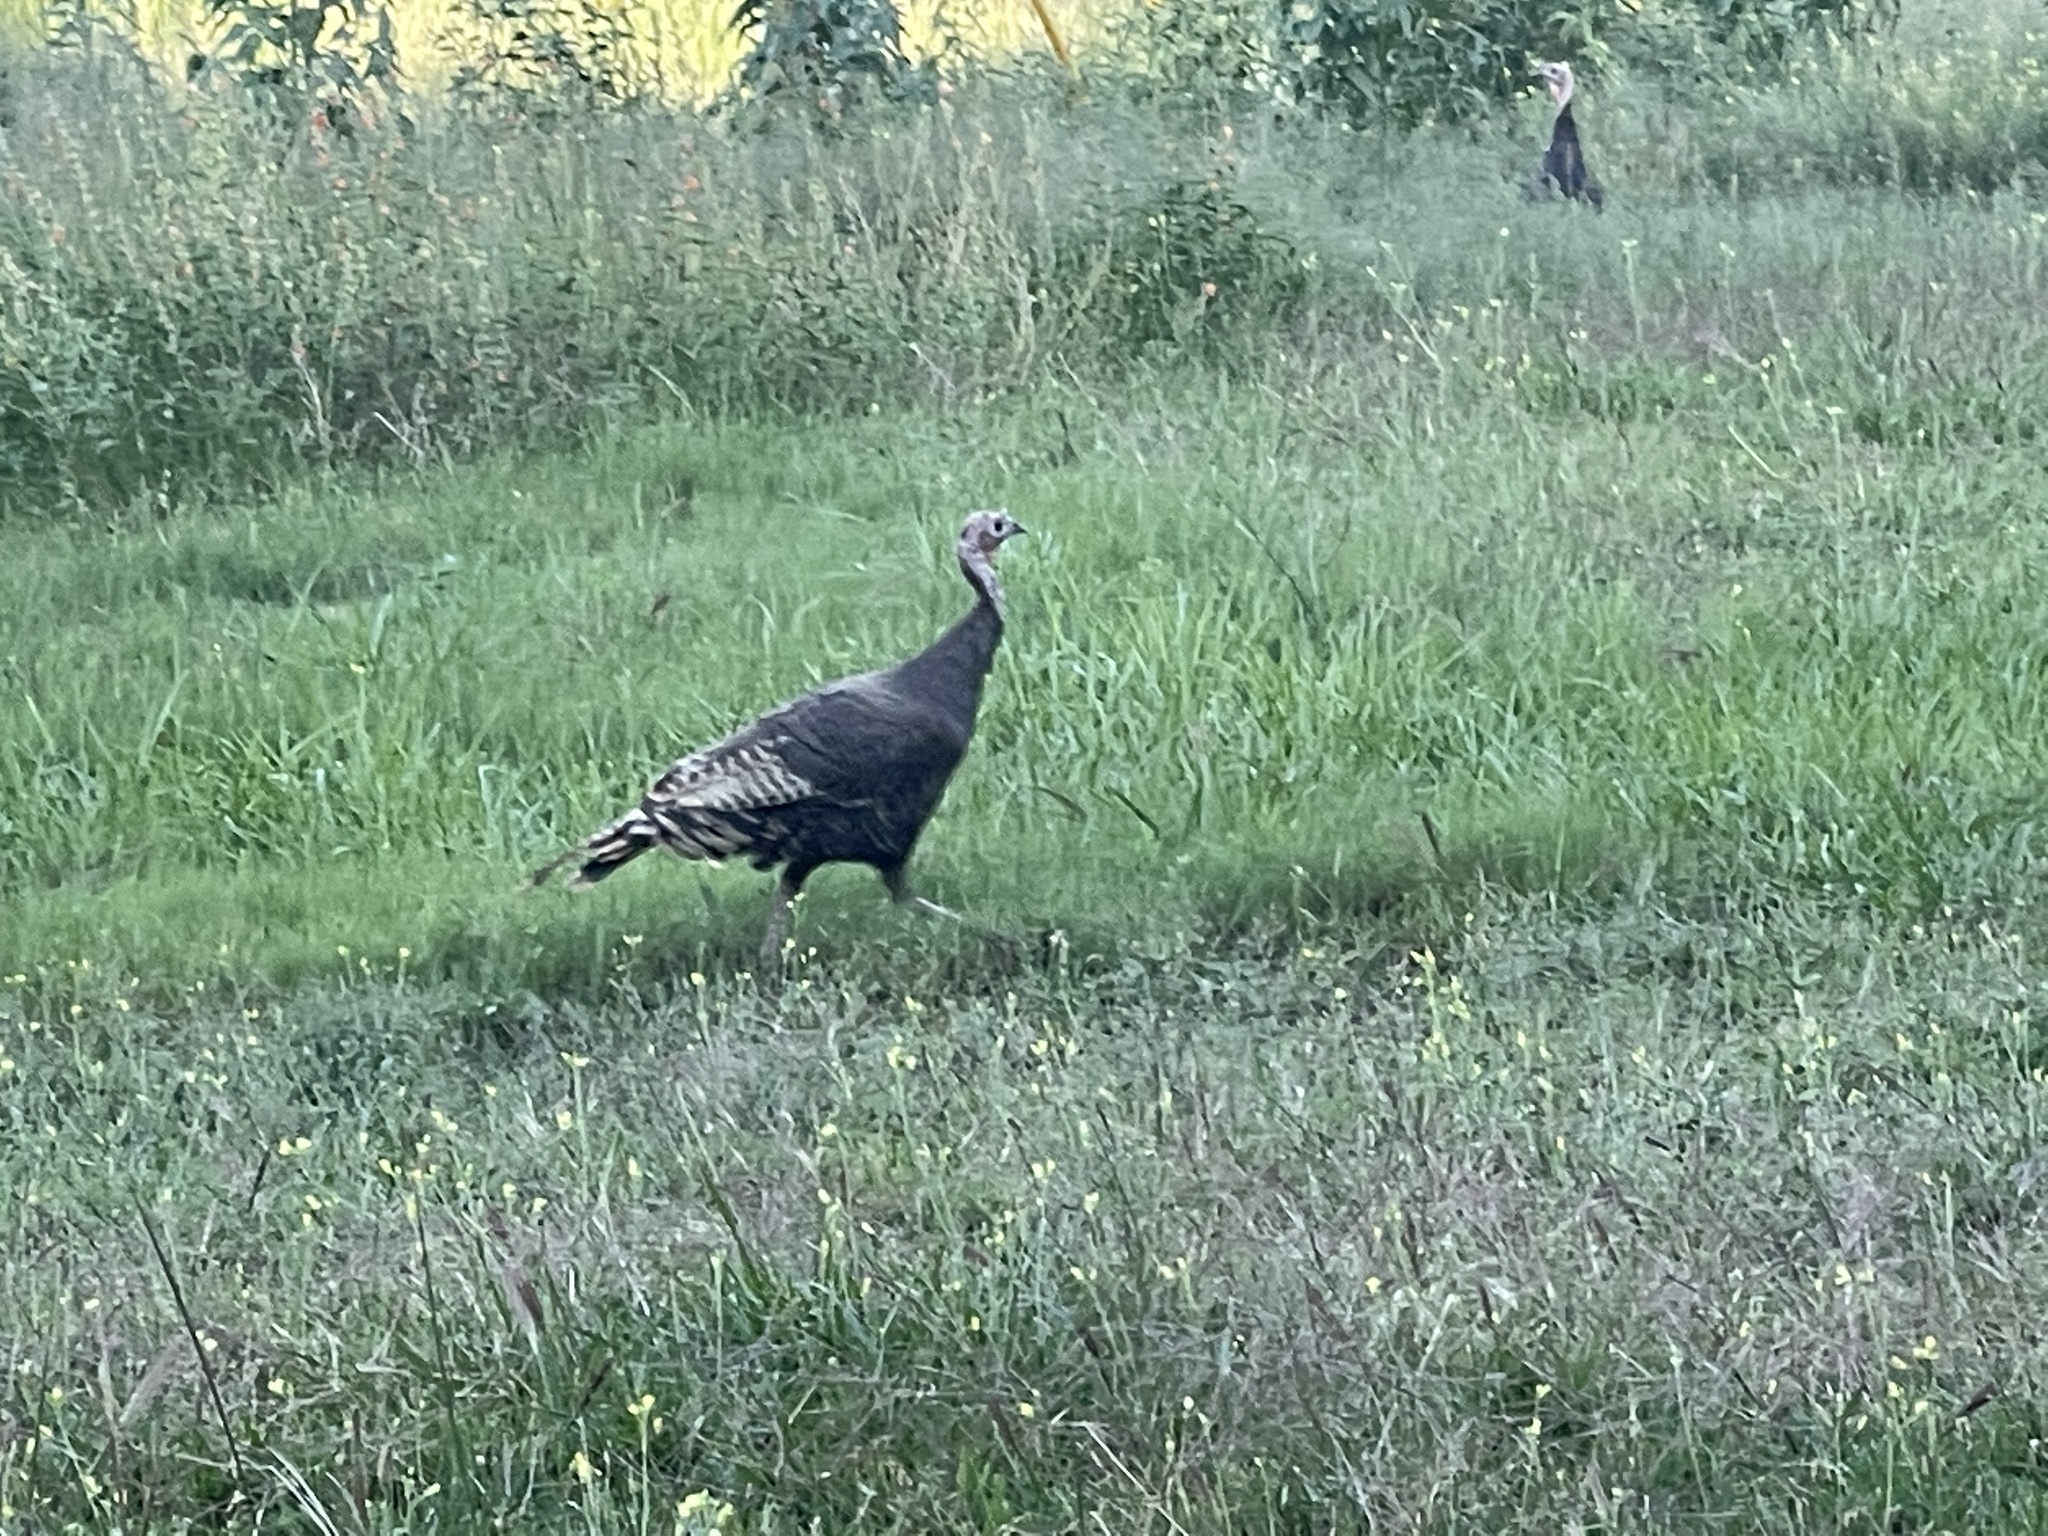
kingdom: Animalia
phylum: Chordata
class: Aves
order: Galliformes
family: Phasianidae
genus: Meleagris
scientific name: Meleagris gallopavo
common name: Wild turkey
